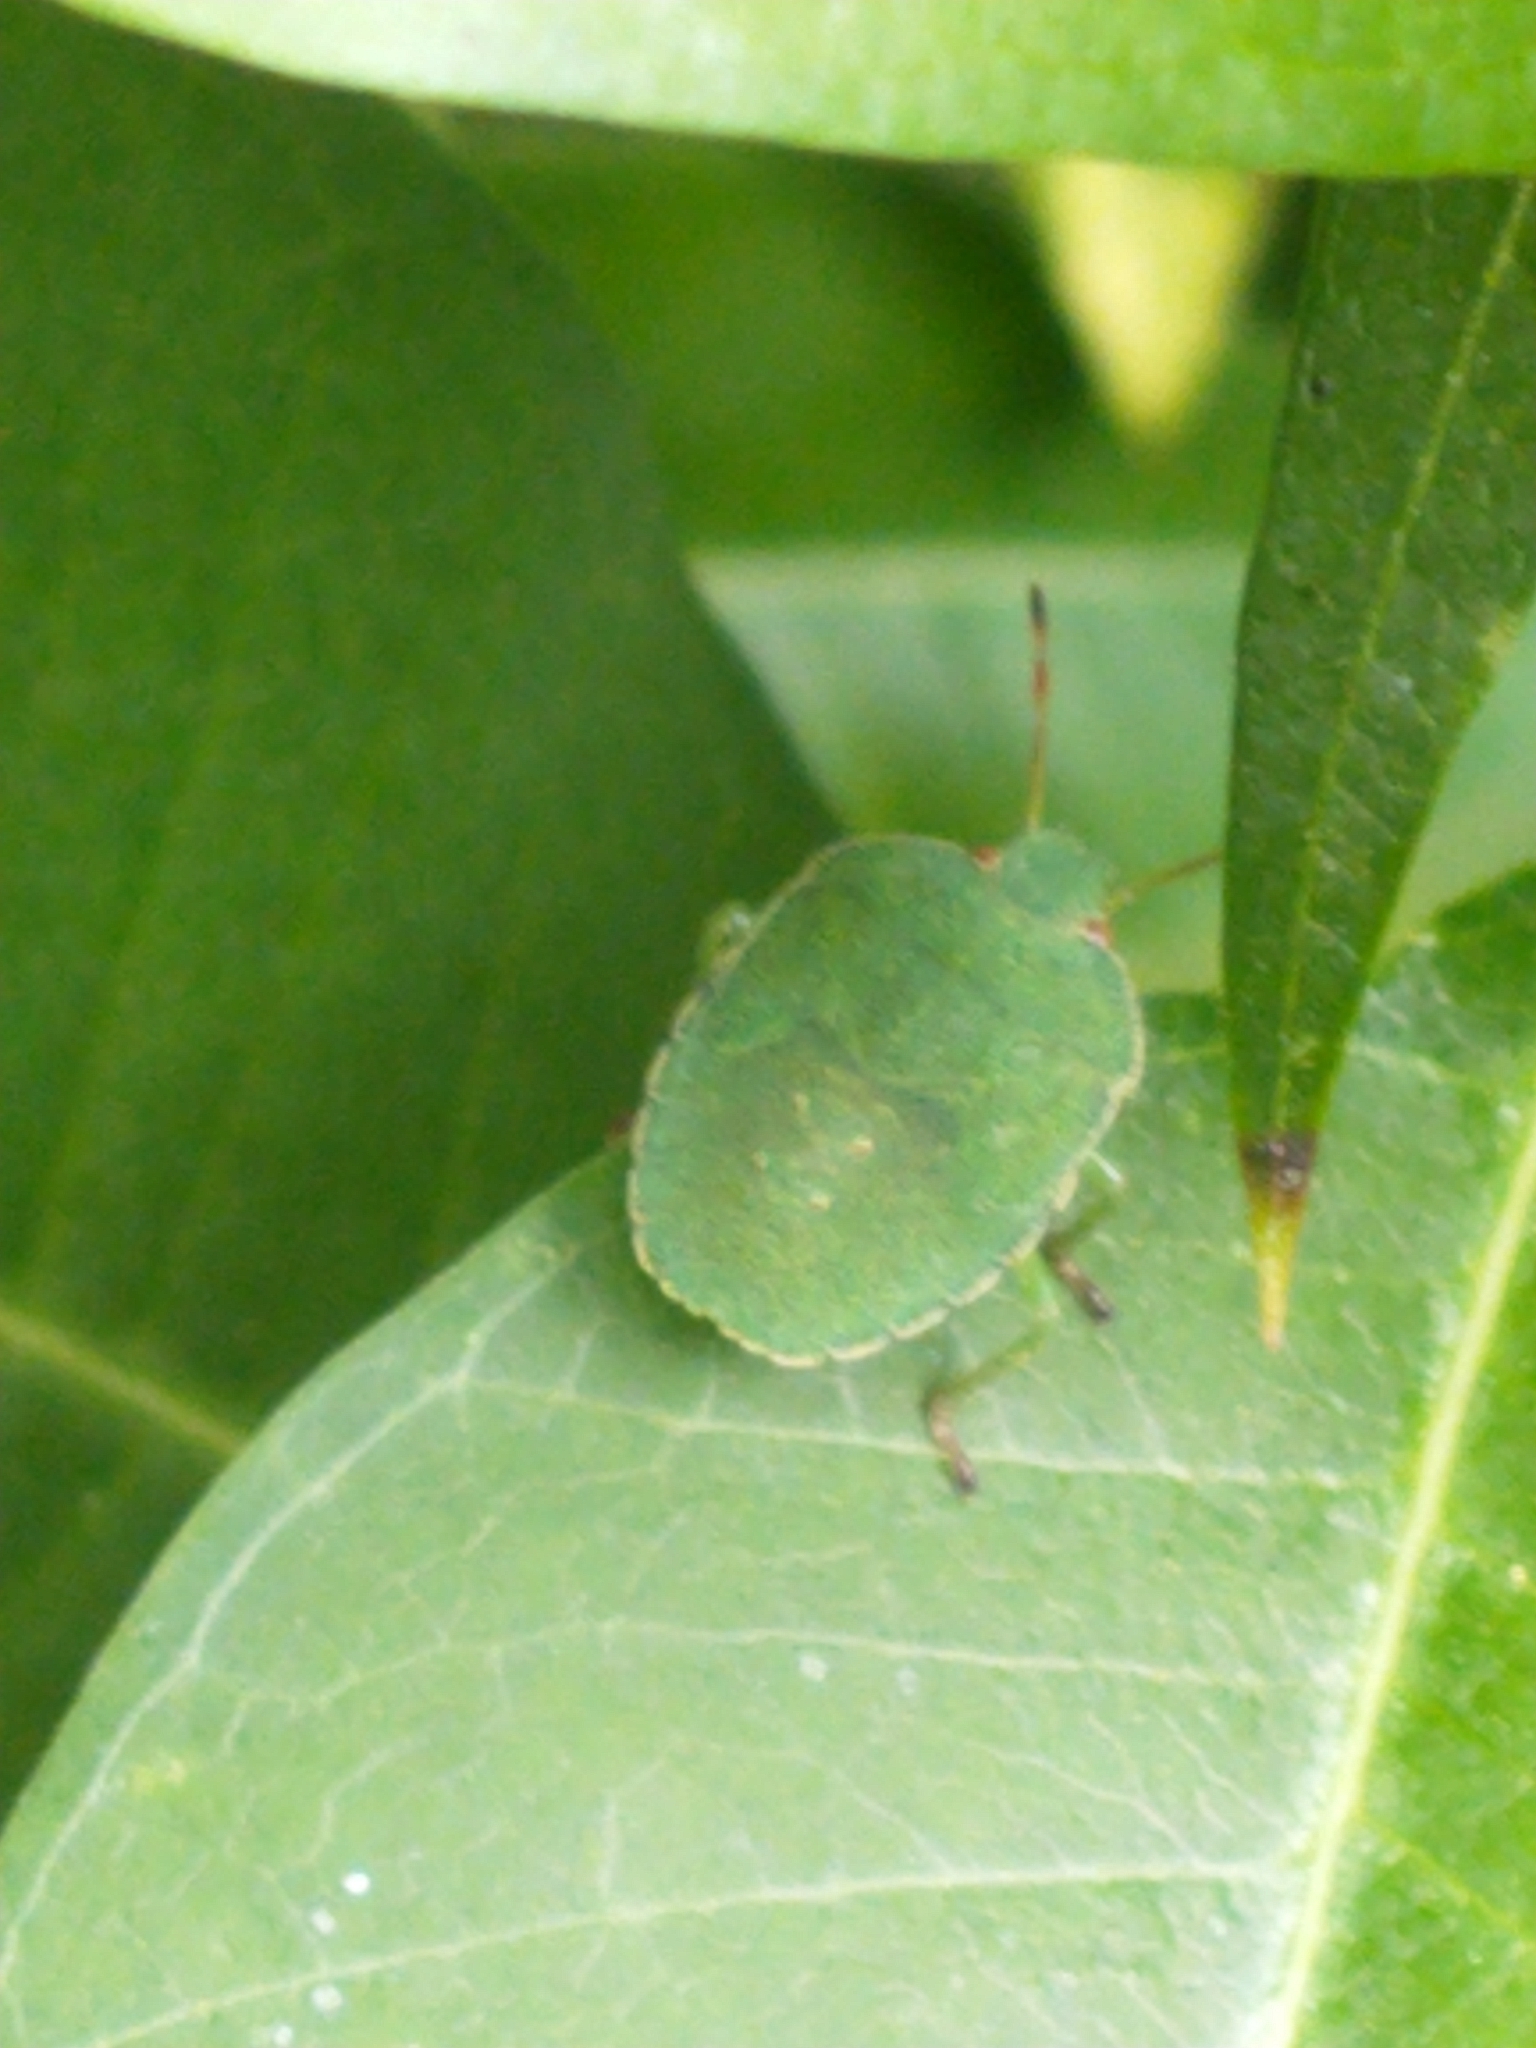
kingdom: Animalia
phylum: Arthropoda
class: Insecta
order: Hemiptera
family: Pentatomidae
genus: Palomena
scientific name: Palomena prasina
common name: Green shieldbug
